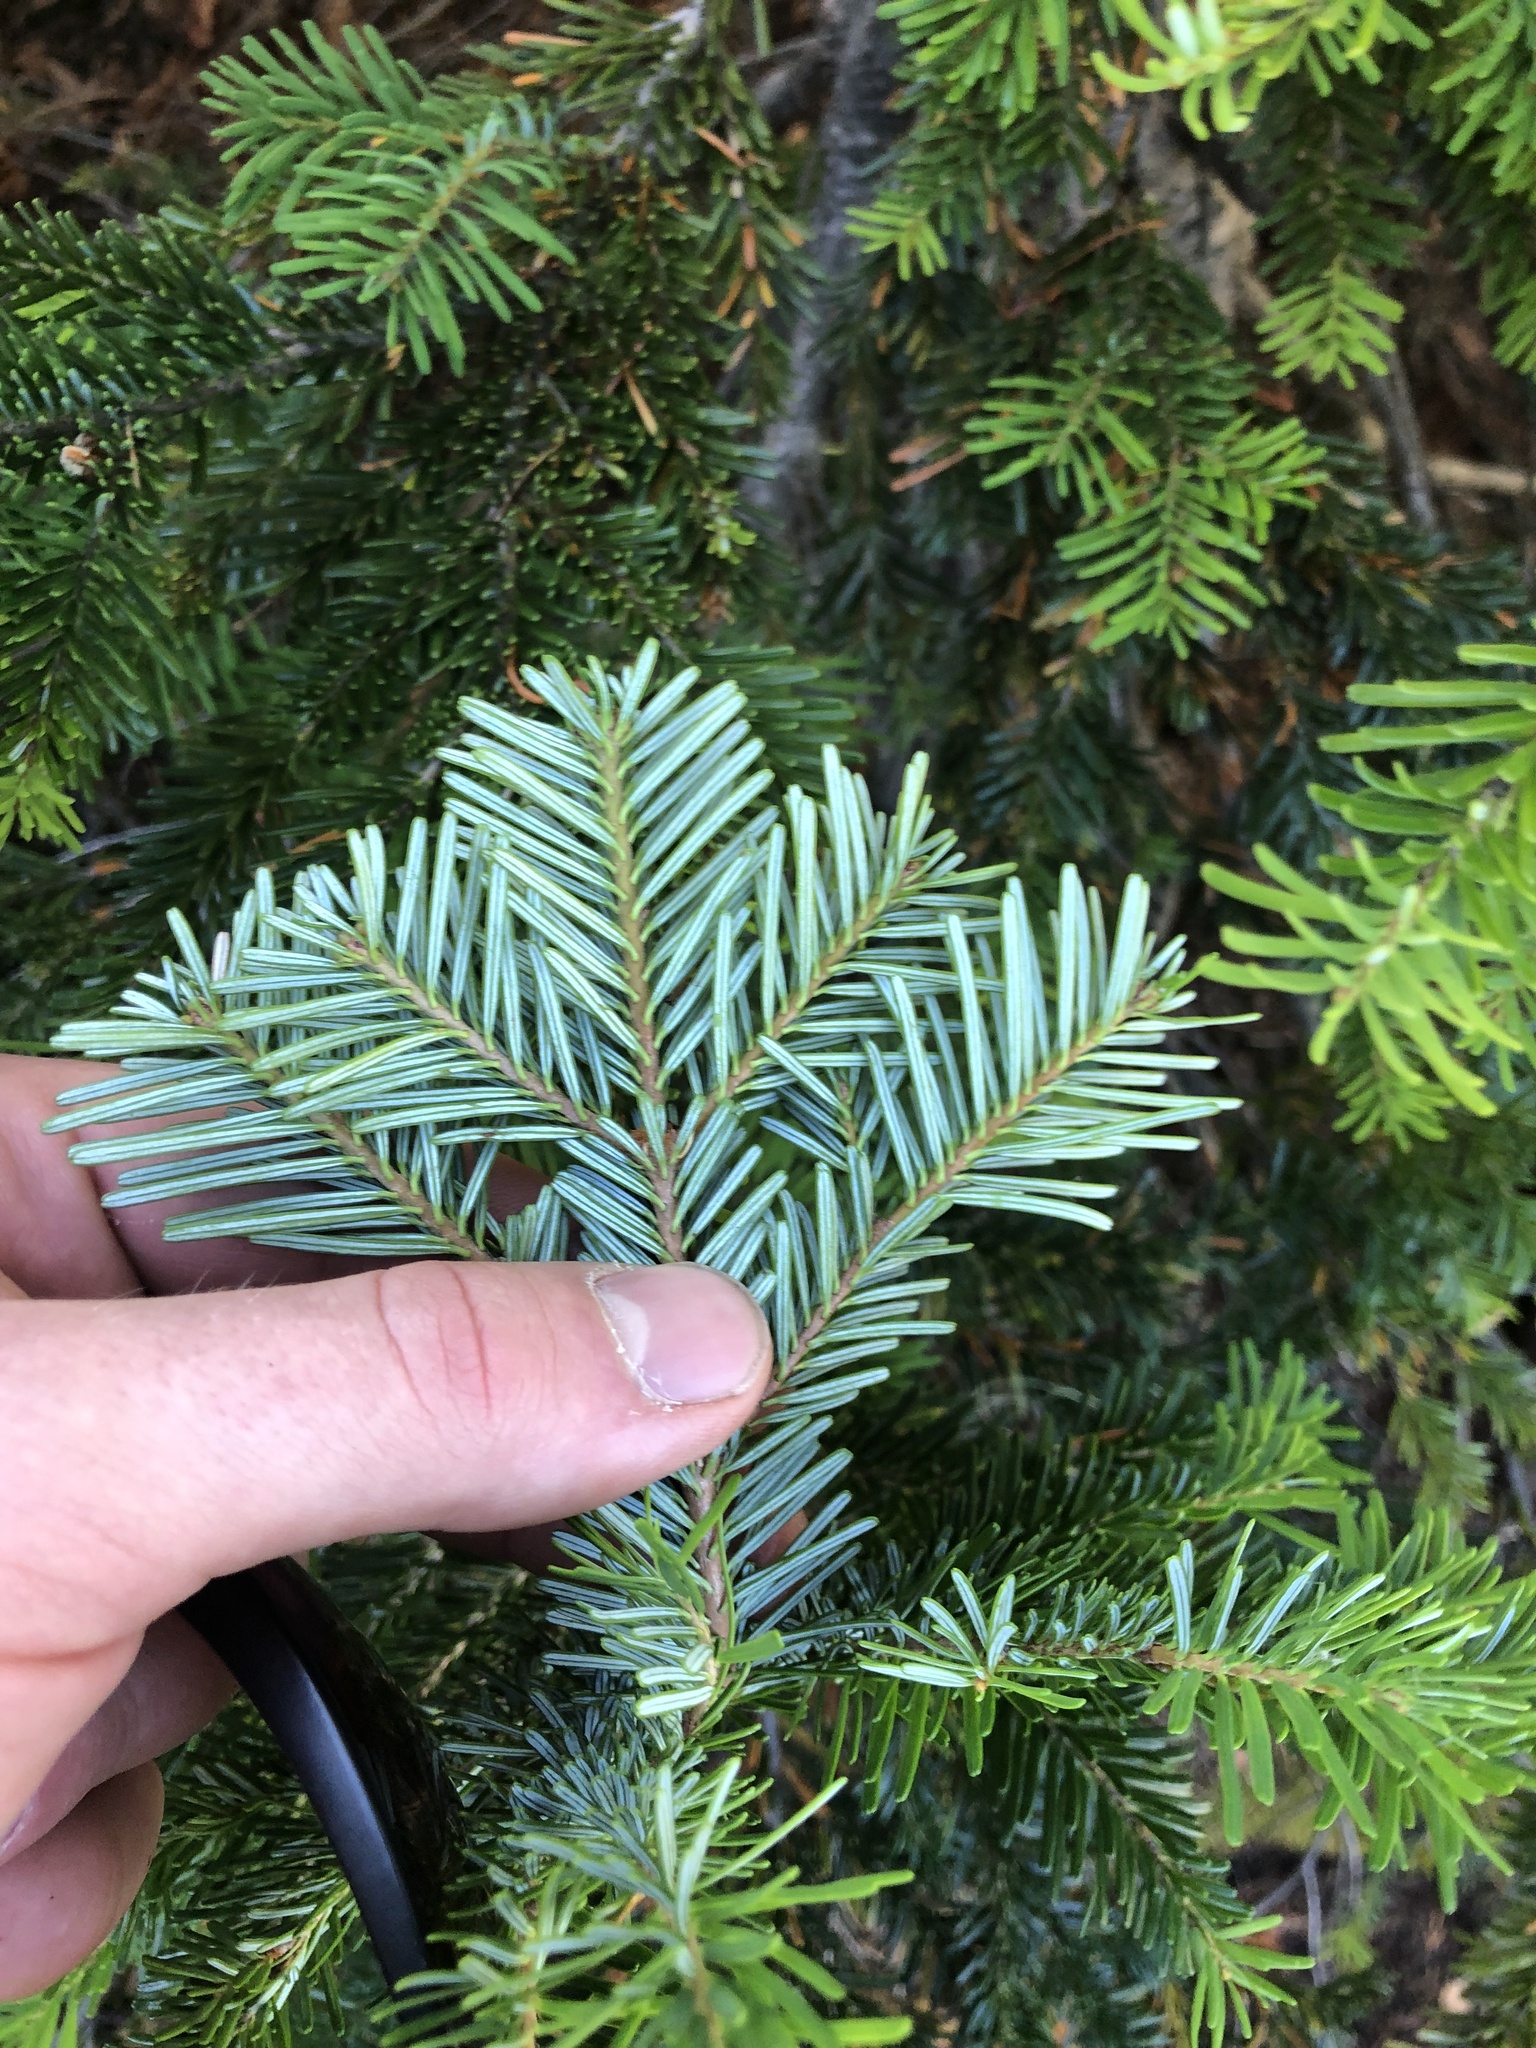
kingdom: Plantae
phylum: Tracheophyta
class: Pinopsida
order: Pinales
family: Pinaceae
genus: Abies
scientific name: Abies amabilis
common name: Pacific silver fir
